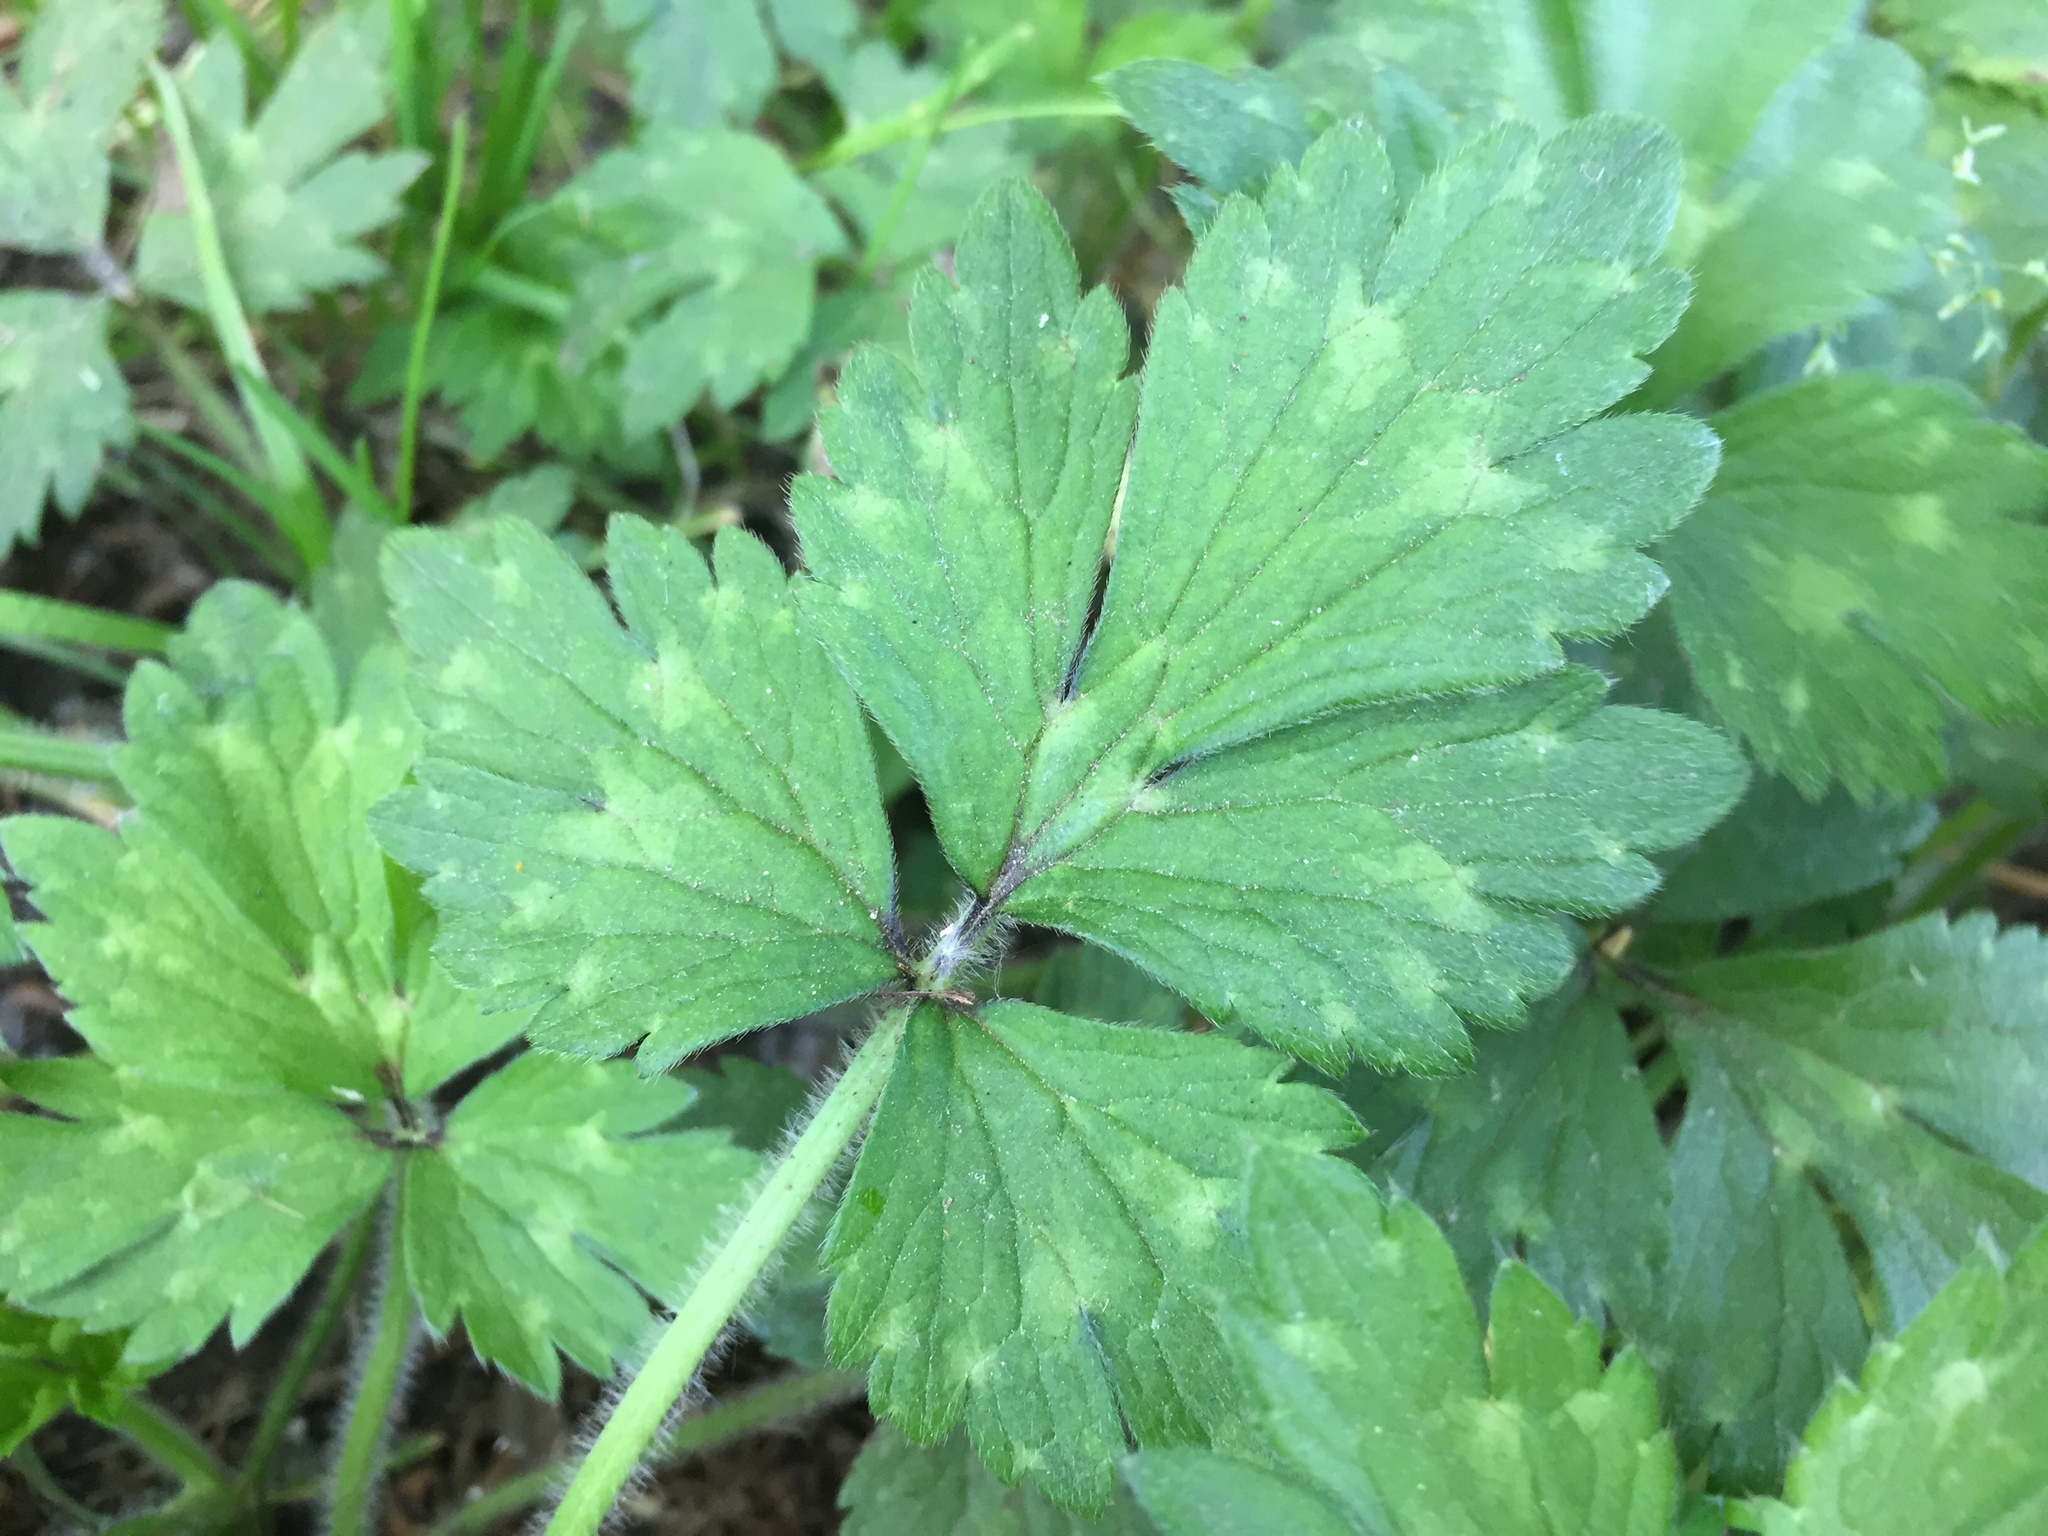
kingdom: Plantae
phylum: Tracheophyta
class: Magnoliopsida
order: Ranunculales
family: Ranunculaceae
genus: Ranunculus
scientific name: Ranunculus repens
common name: Creeping buttercup
